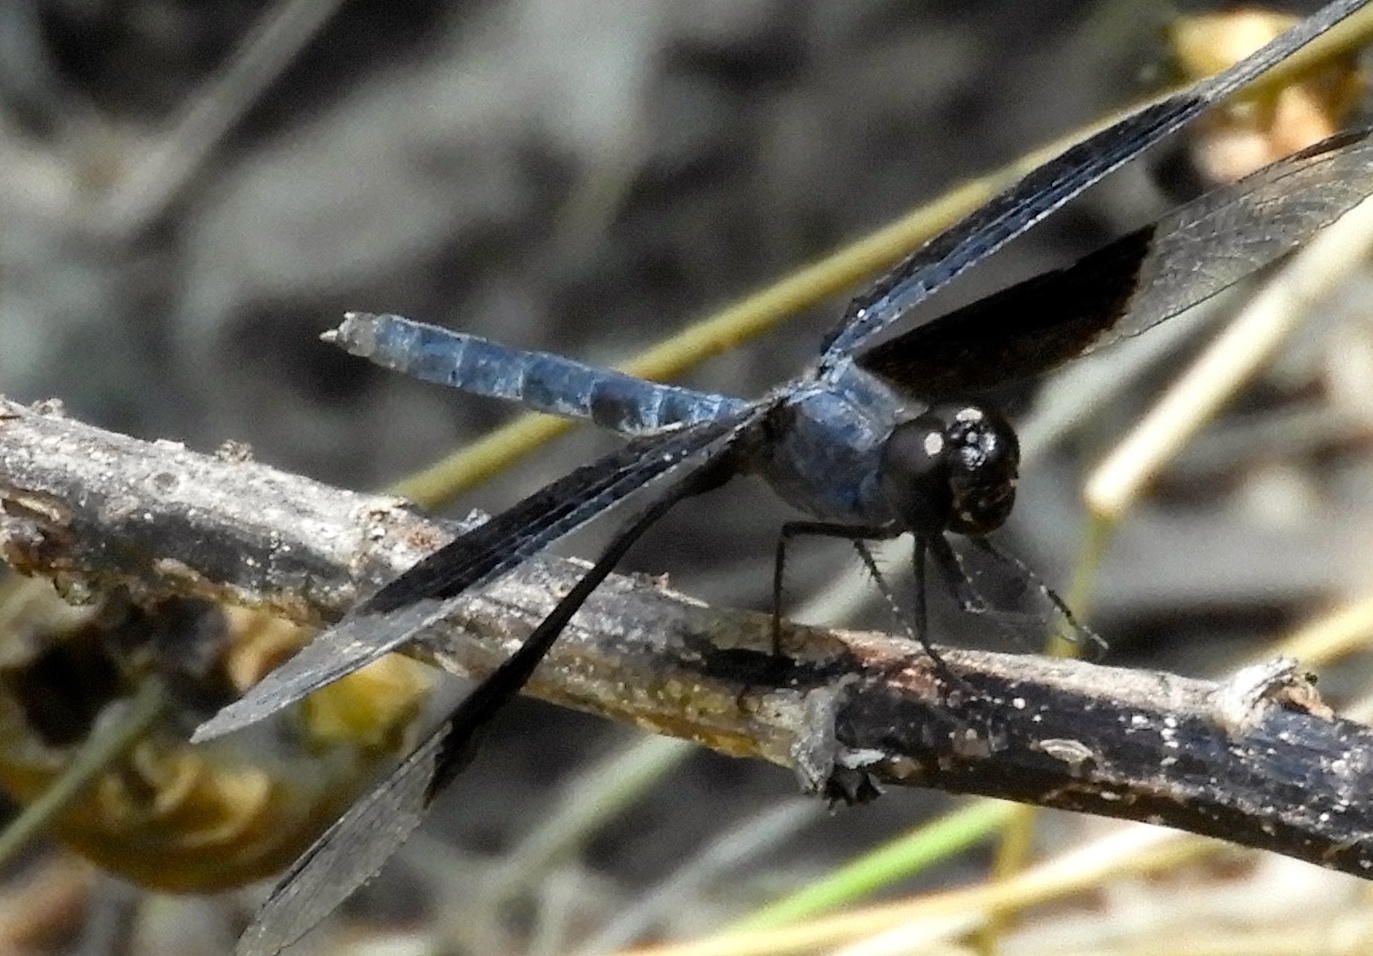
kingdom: Animalia
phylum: Arthropoda
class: Insecta
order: Odonata
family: Libellulidae
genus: Erythrodiplax
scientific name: Erythrodiplax funerea
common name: Black-winged dragonlet
